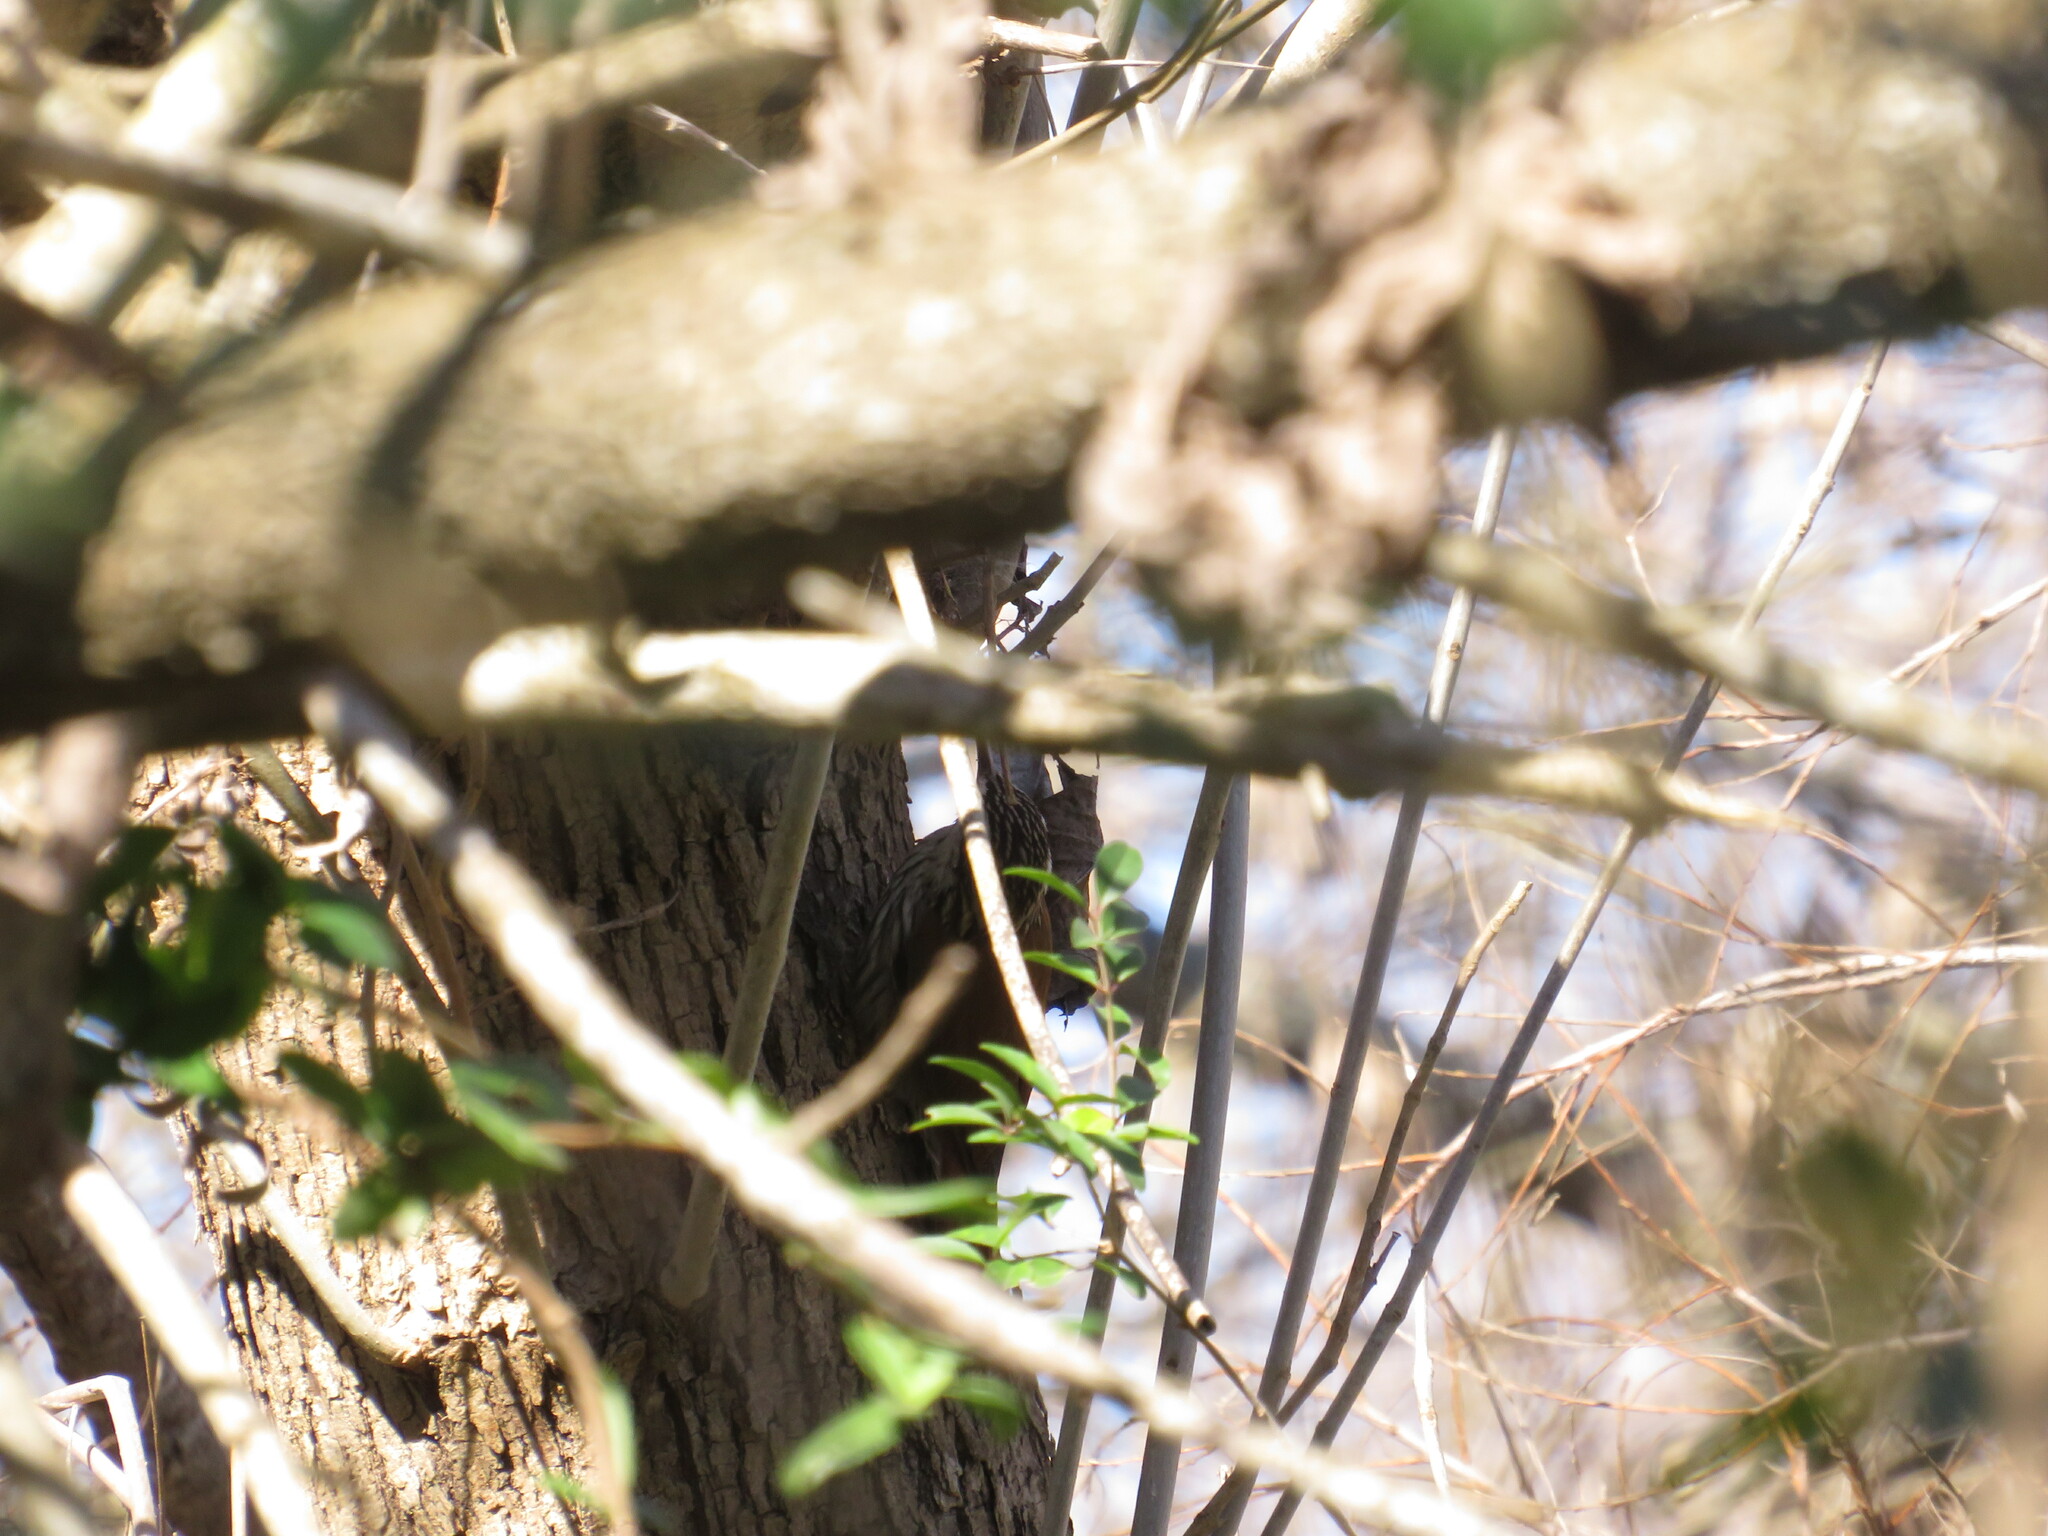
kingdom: Animalia
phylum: Chordata
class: Aves
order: Passeriformes
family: Furnariidae
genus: Lepidocolaptes
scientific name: Lepidocolaptes angustirostris
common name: Narrow-billed woodcreeper
